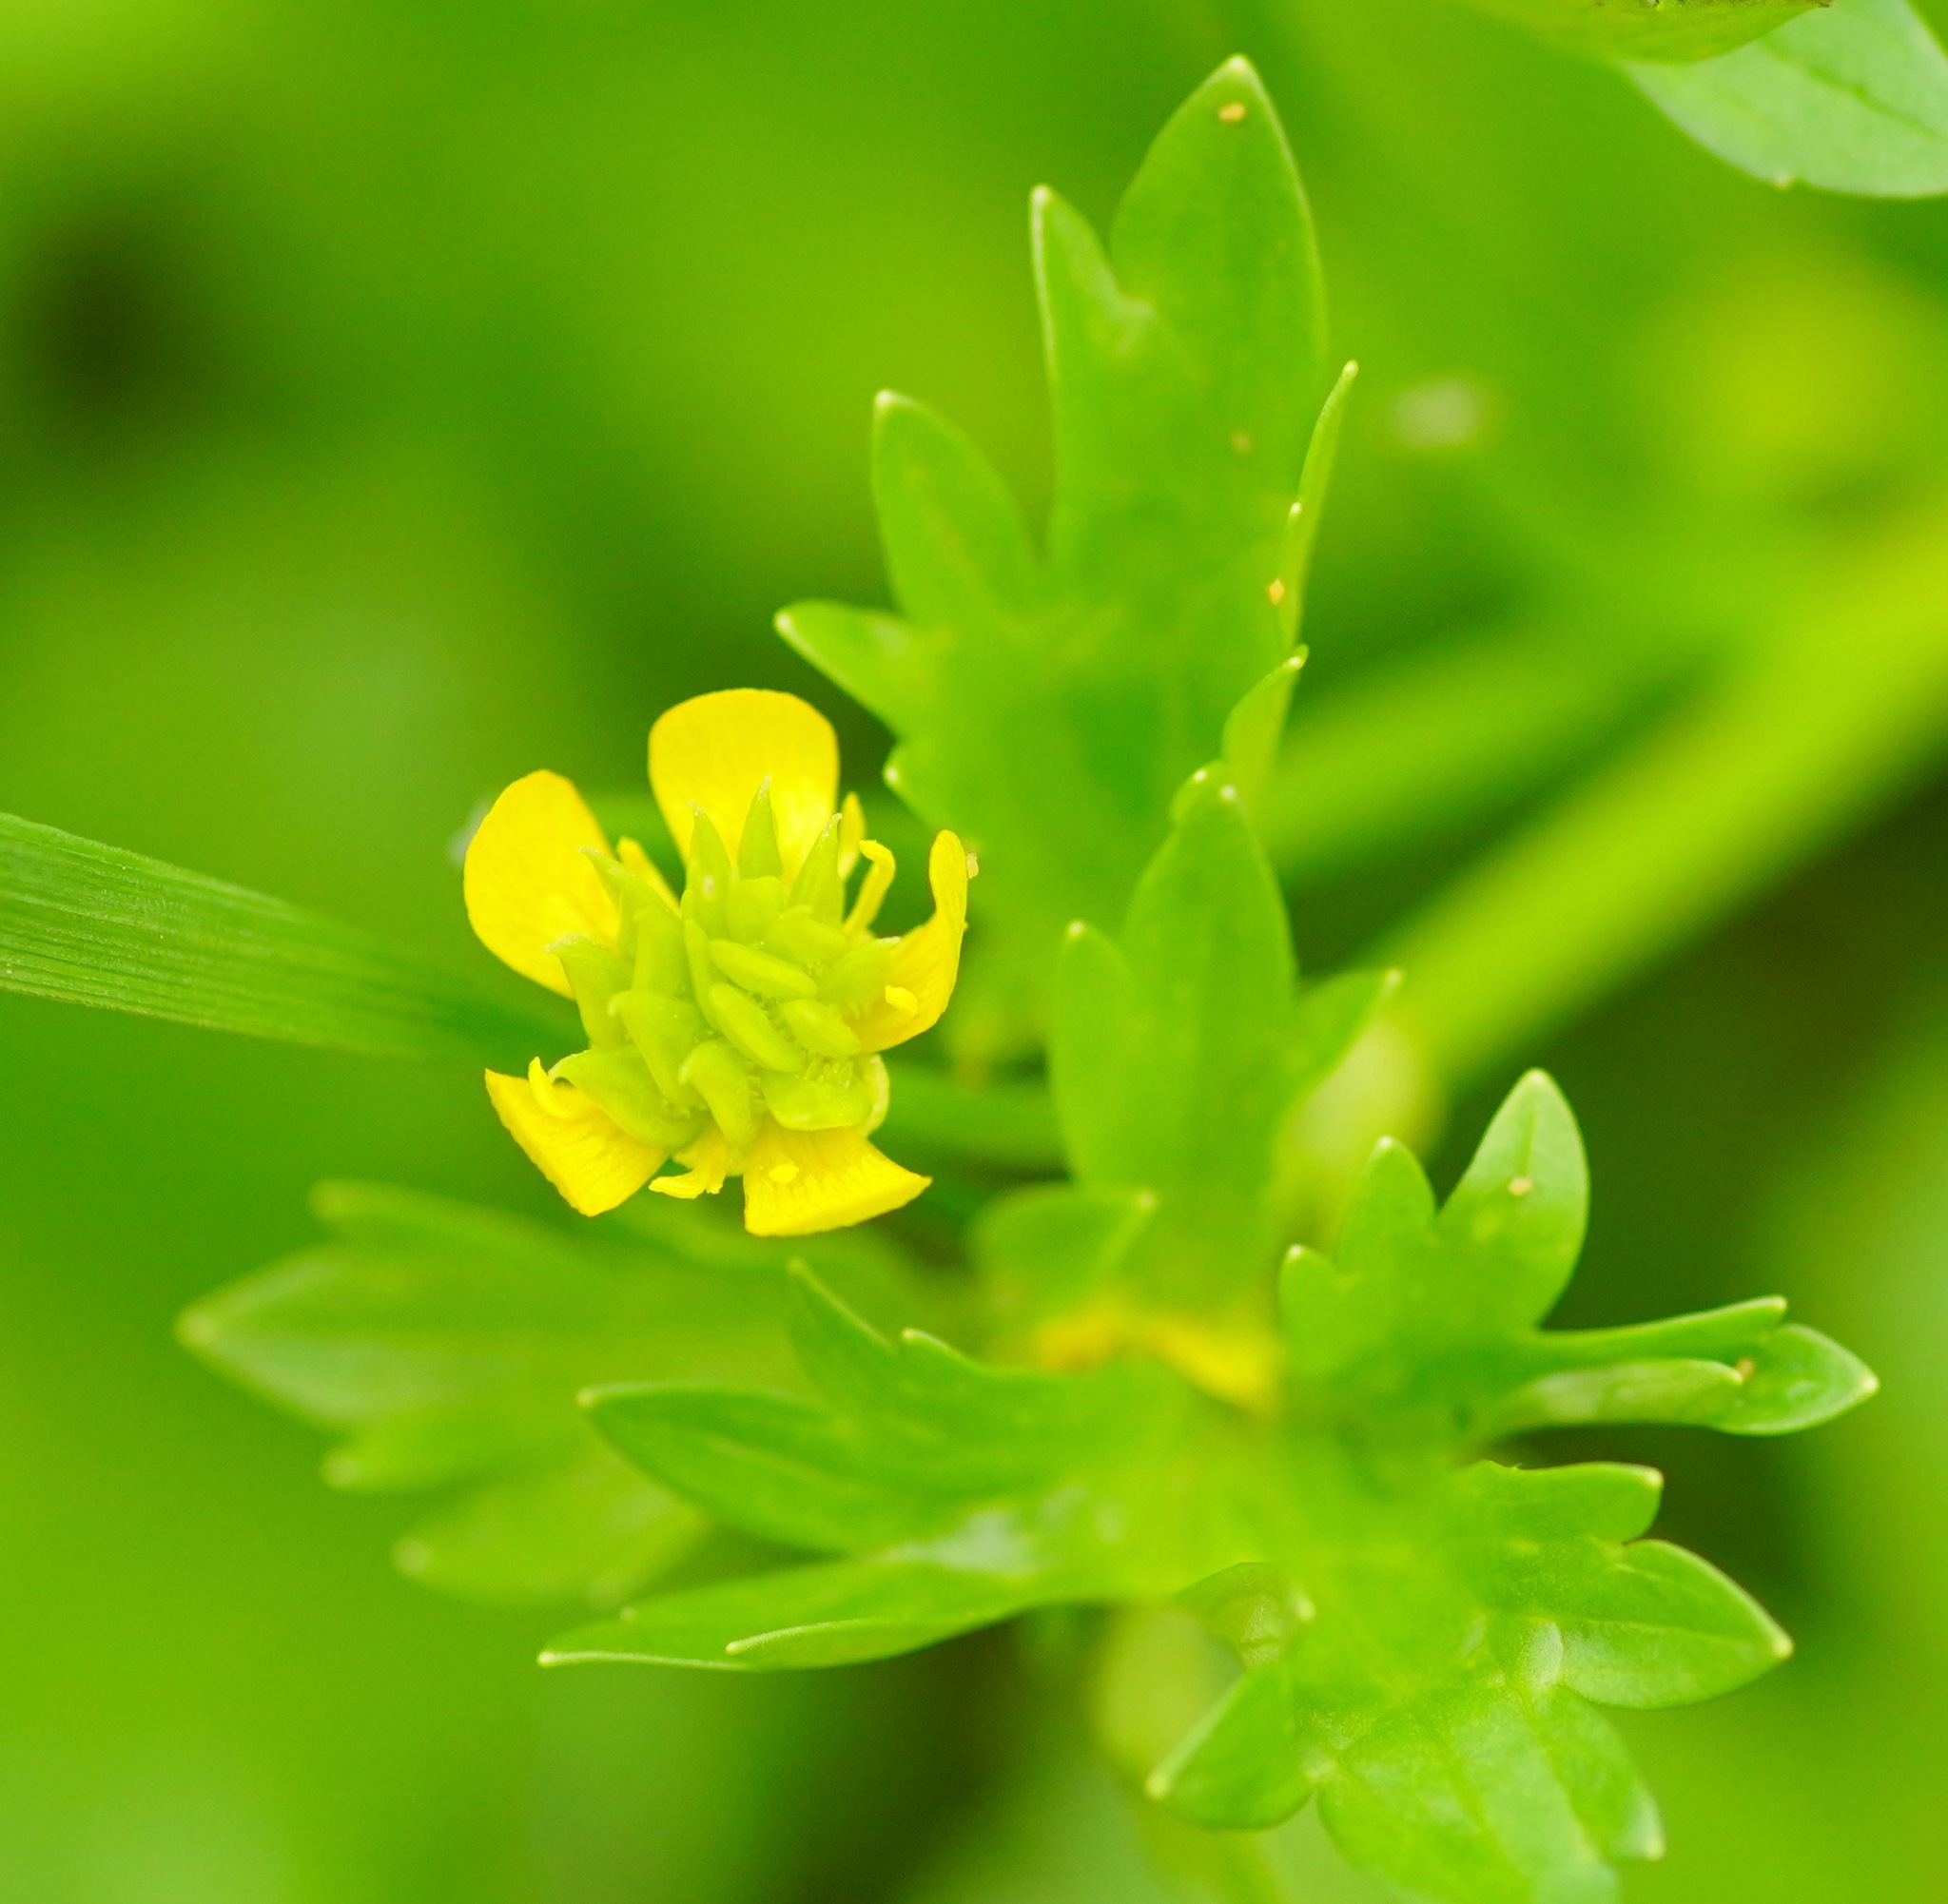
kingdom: Plantae
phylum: Tracheophyta
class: Magnoliopsida
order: Ranunculales
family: Ranunculaceae
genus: Ranunculus
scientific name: Ranunculus muricatus
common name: Rough-fruited buttercup
